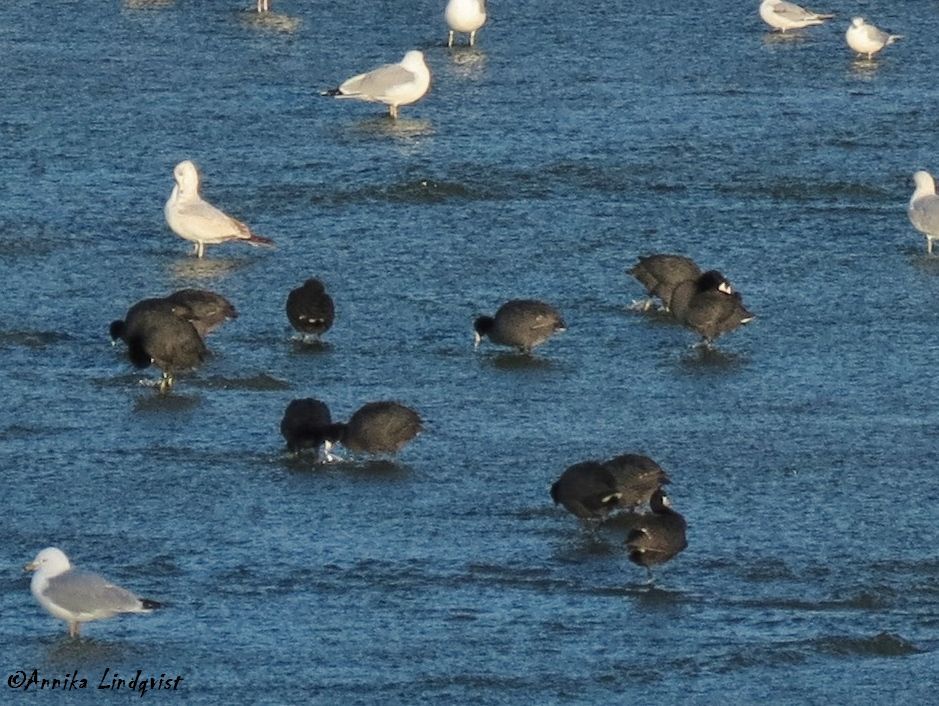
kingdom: Animalia
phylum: Chordata
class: Aves
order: Gruiformes
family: Rallidae
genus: Fulica
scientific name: Fulica americana
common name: American coot
